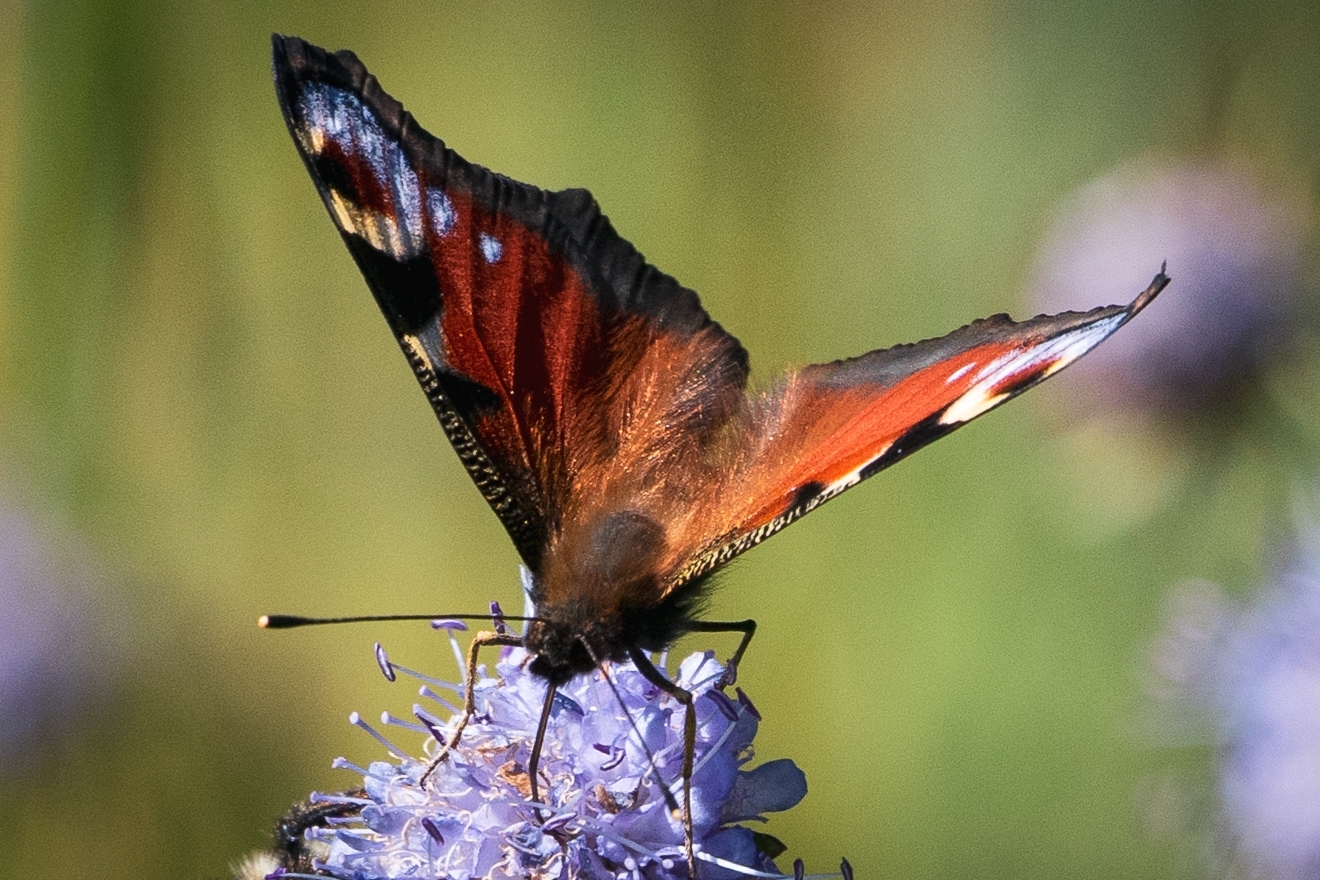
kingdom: Animalia
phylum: Arthropoda
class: Insecta
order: Lepidoptera
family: Nymphalidae
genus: Aglais
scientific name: Aglais io
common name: Peacock
